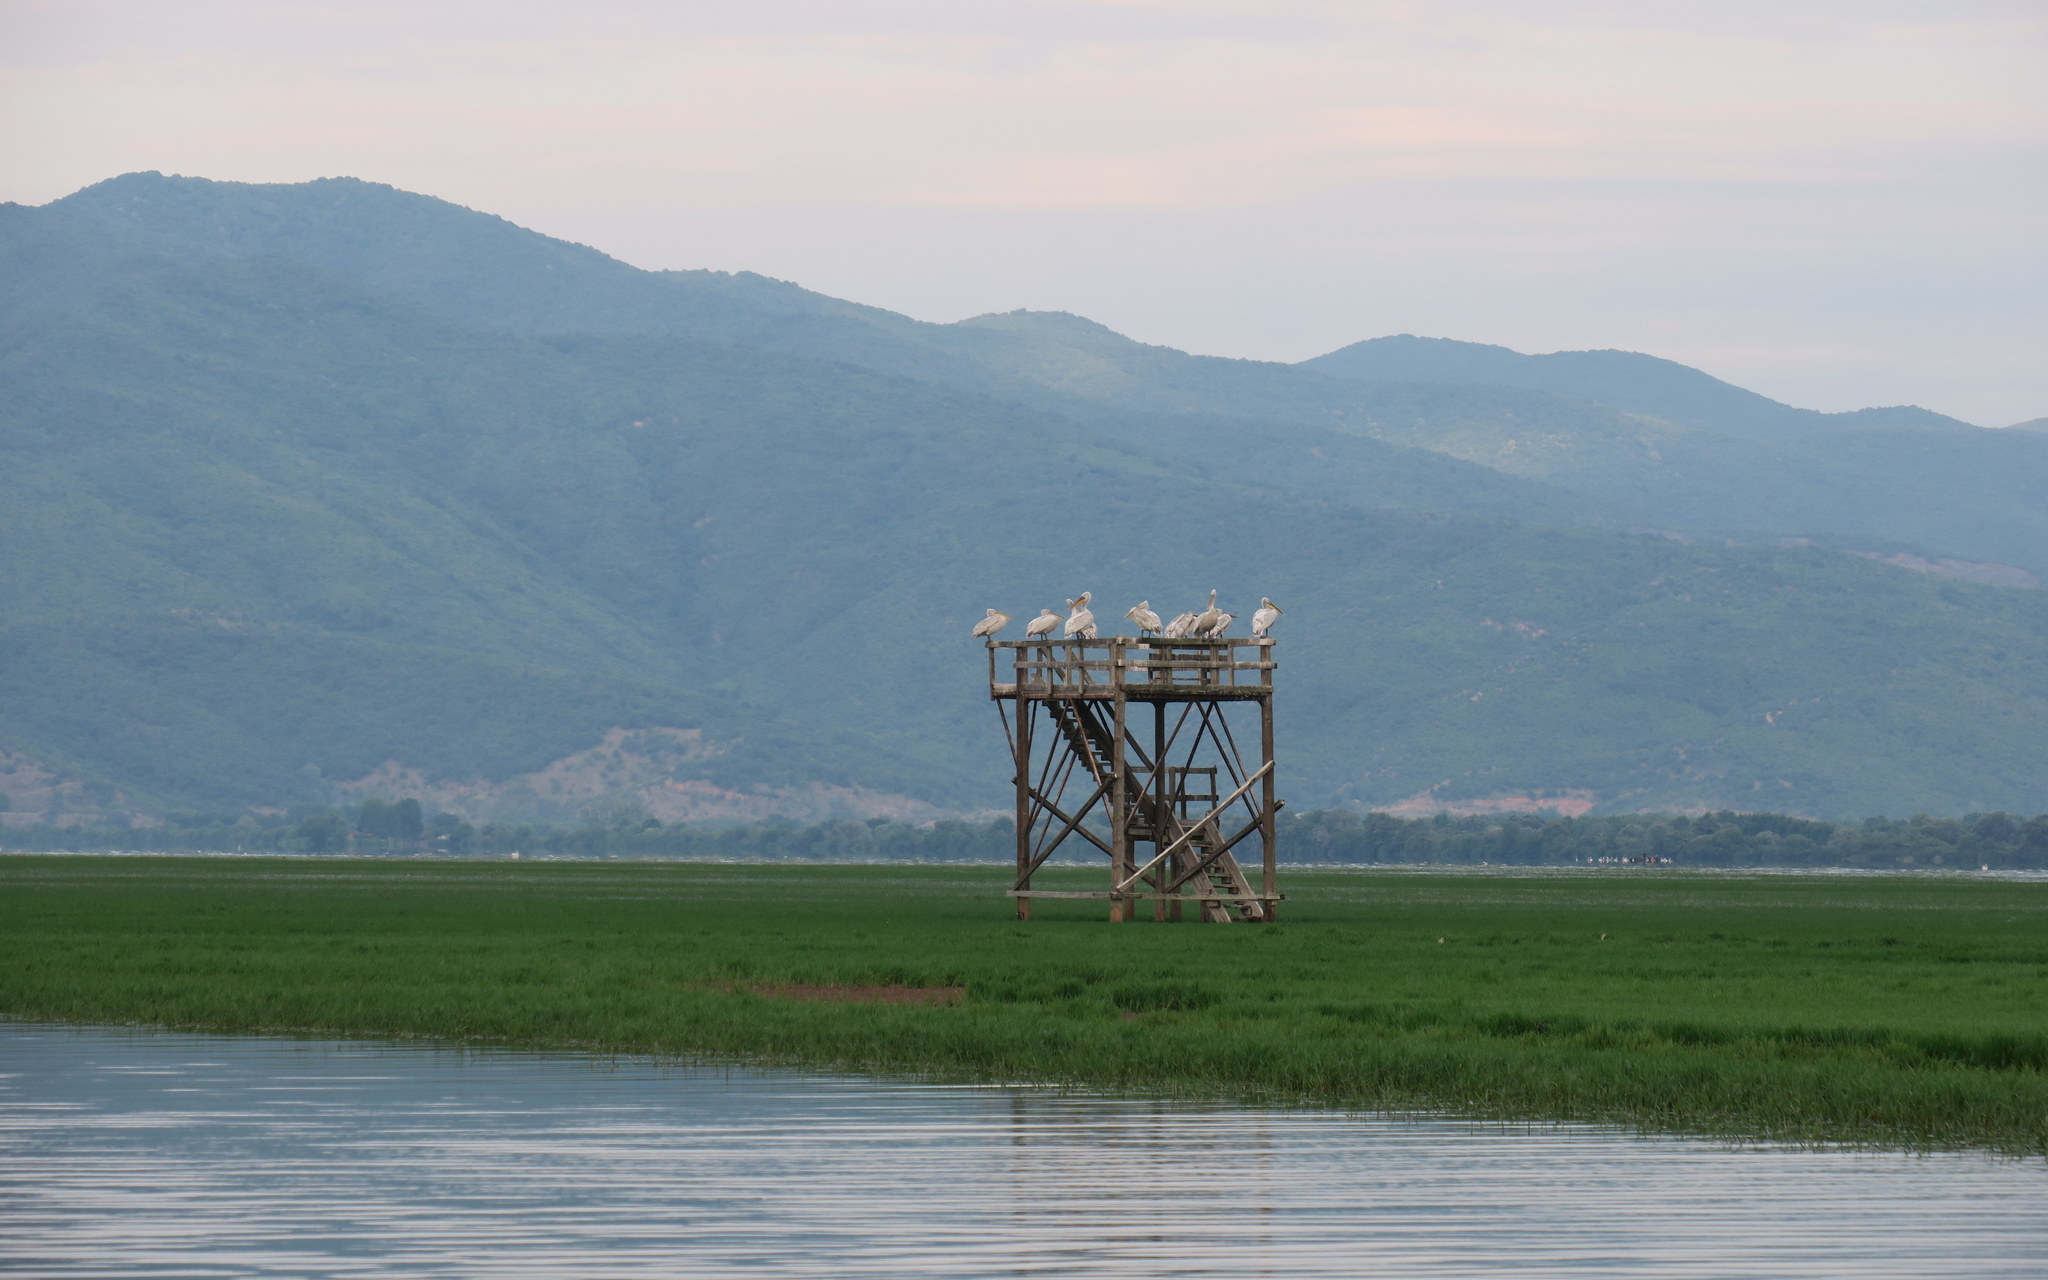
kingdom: Animalia
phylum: Chordata
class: Aves
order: Pelecaniformes
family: Pelecanidae
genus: Pelecanus
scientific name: Pelecanus crispus
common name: Dalmatian pelican
